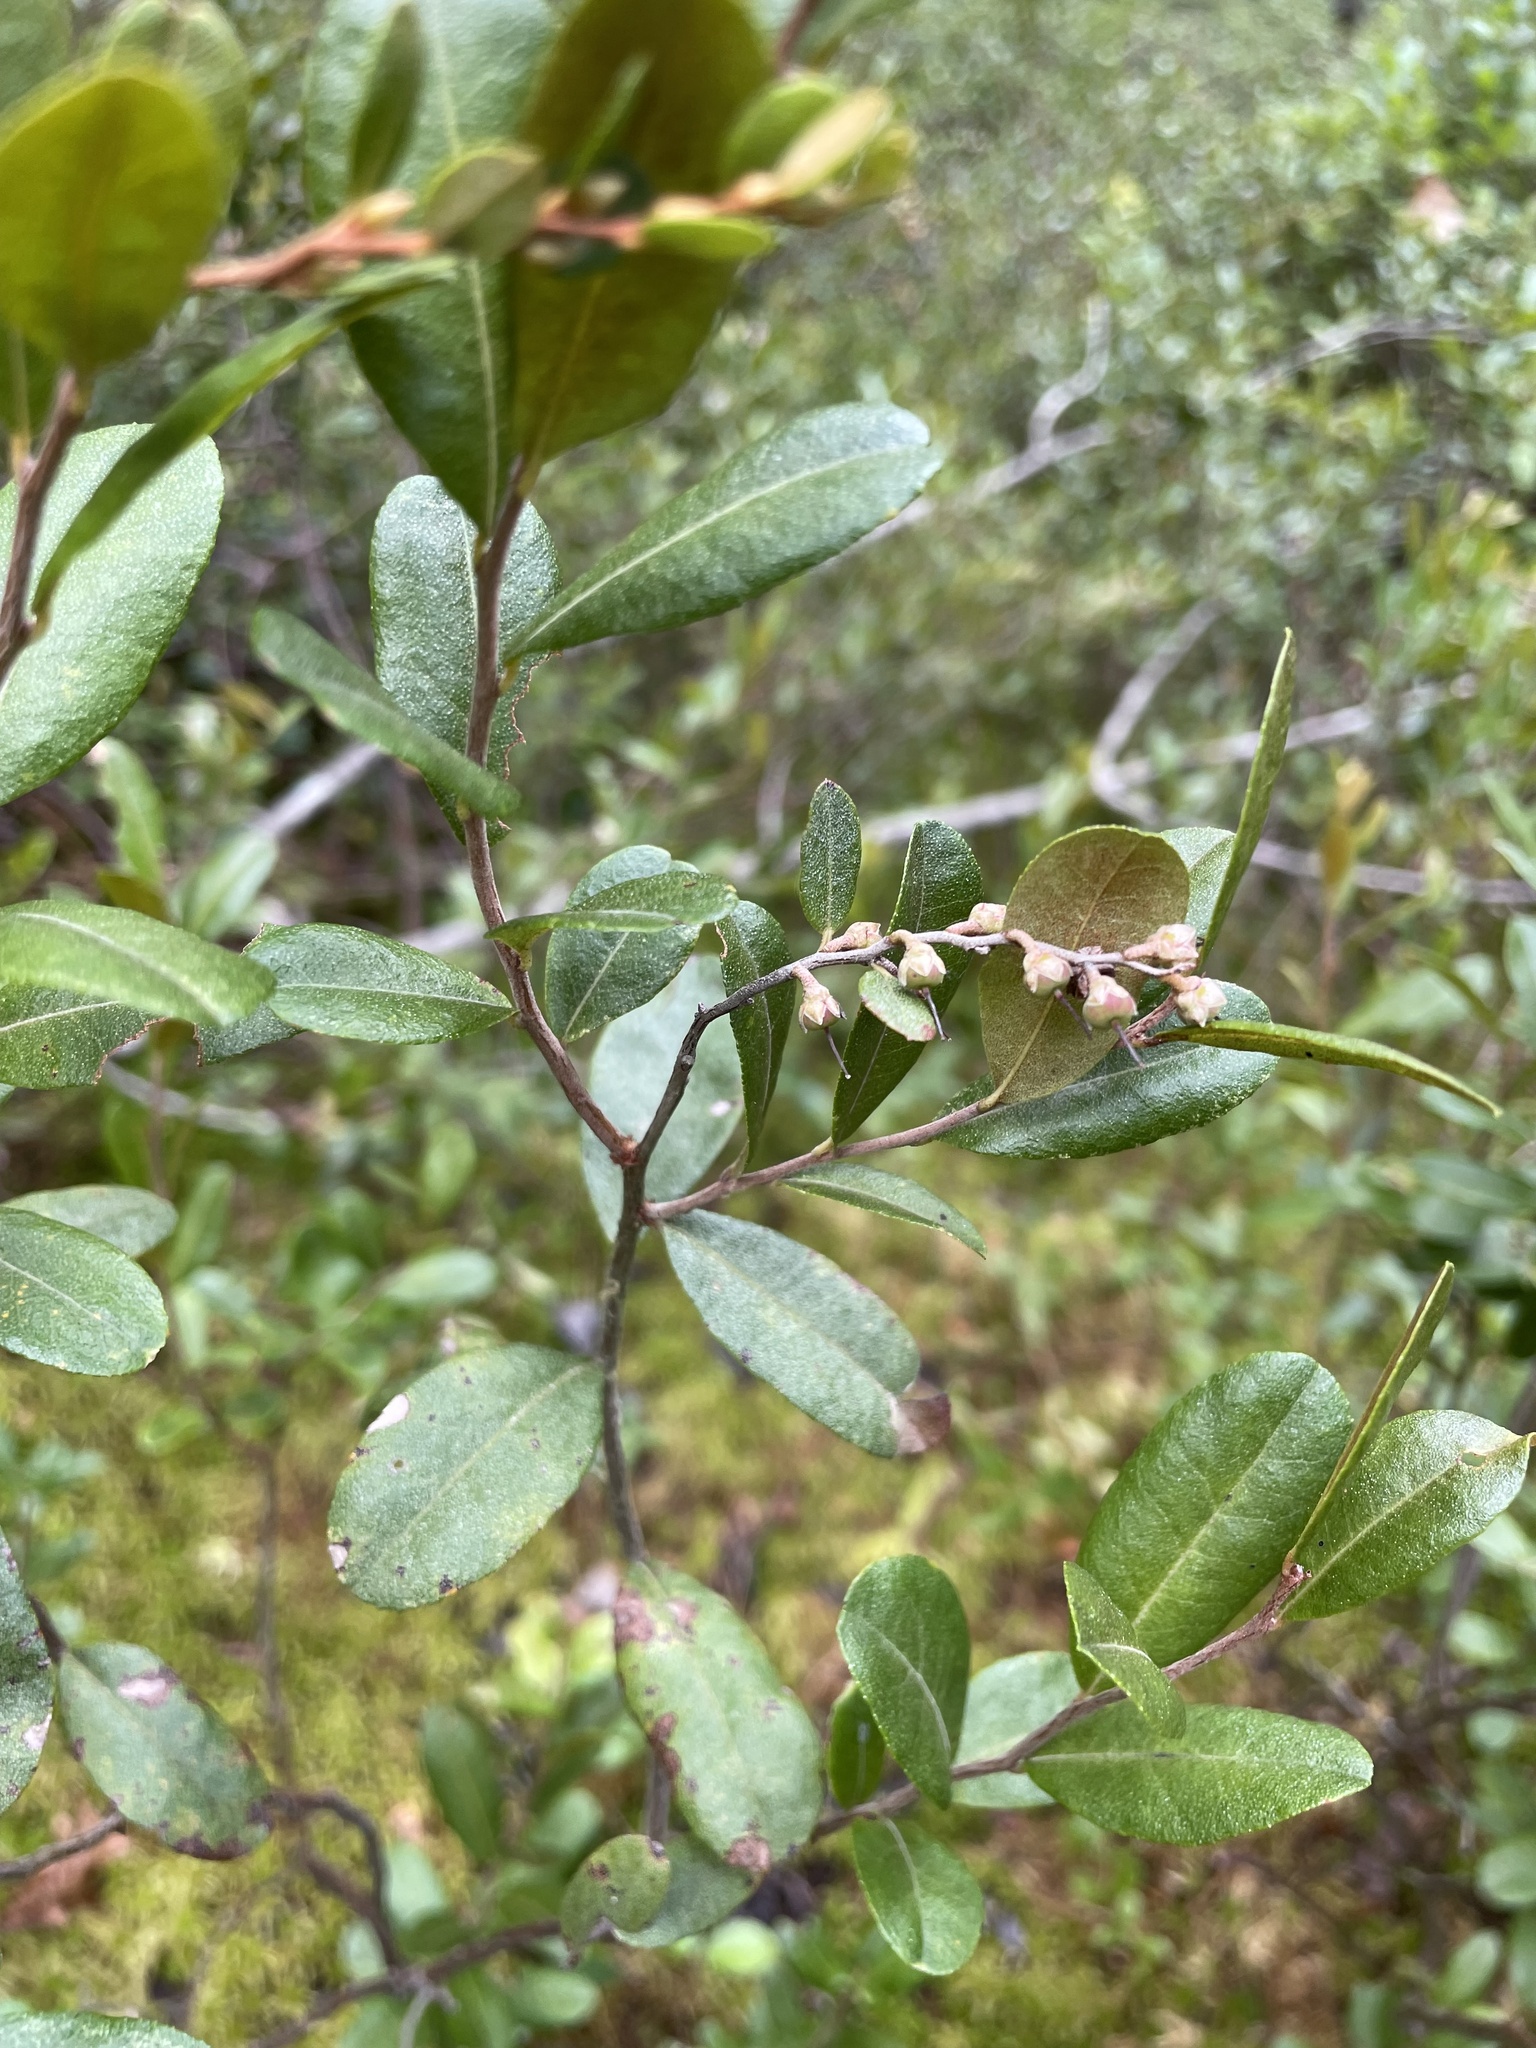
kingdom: Plantae
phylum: Tracheophyta
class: Magnoliopsida
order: Ericales
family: Ericaceae
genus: Chamaedaphne
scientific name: Chamaedaphne calyculata
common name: Leatherleaf
